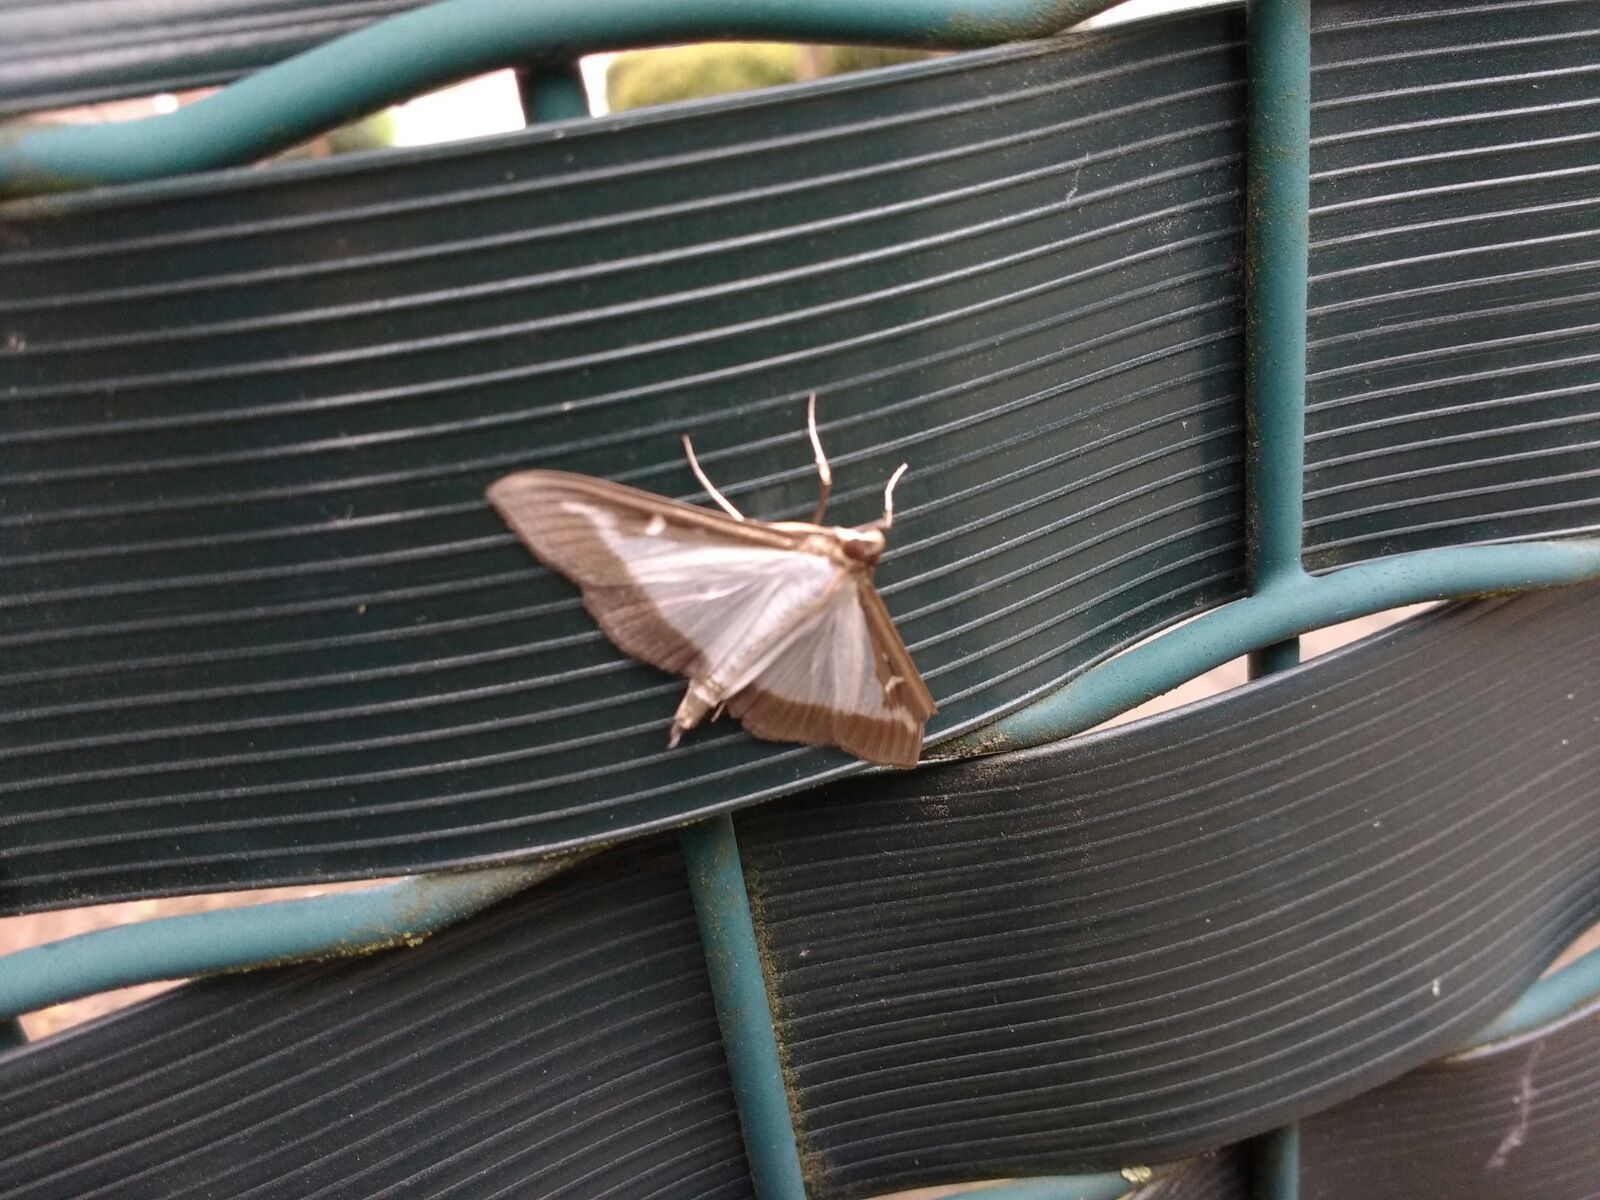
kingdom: Animalia
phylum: Arthropoda
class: Insecta
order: Lepidoptera
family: Crambidae
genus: Cydalima
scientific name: Cydalima perspectalis
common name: Box tree moth
